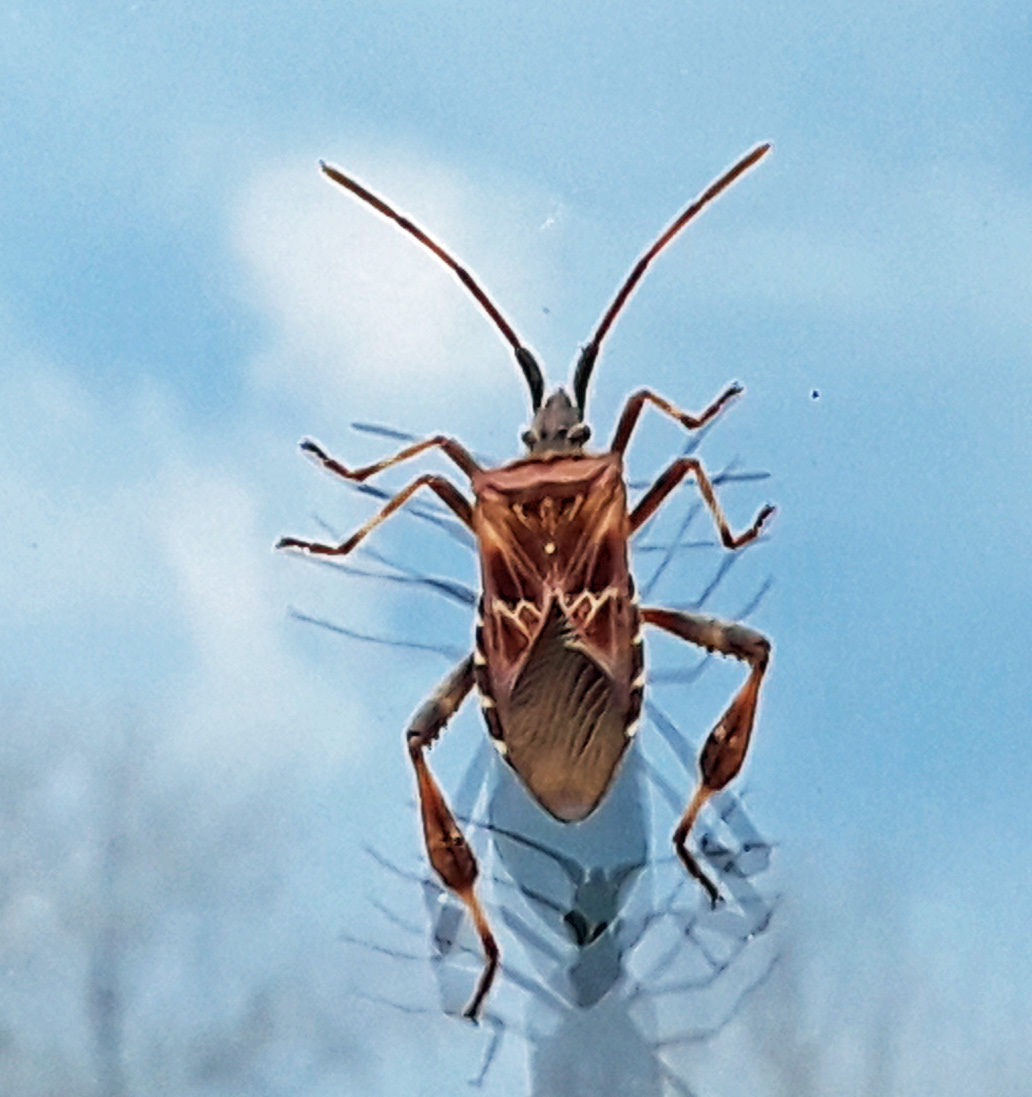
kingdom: Animalia
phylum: Arthropoda
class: Insecta
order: Hemiptera
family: Coreidae
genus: Leptoglossus
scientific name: Leptoglossus occidentalis
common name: Western conifer-seed bug
